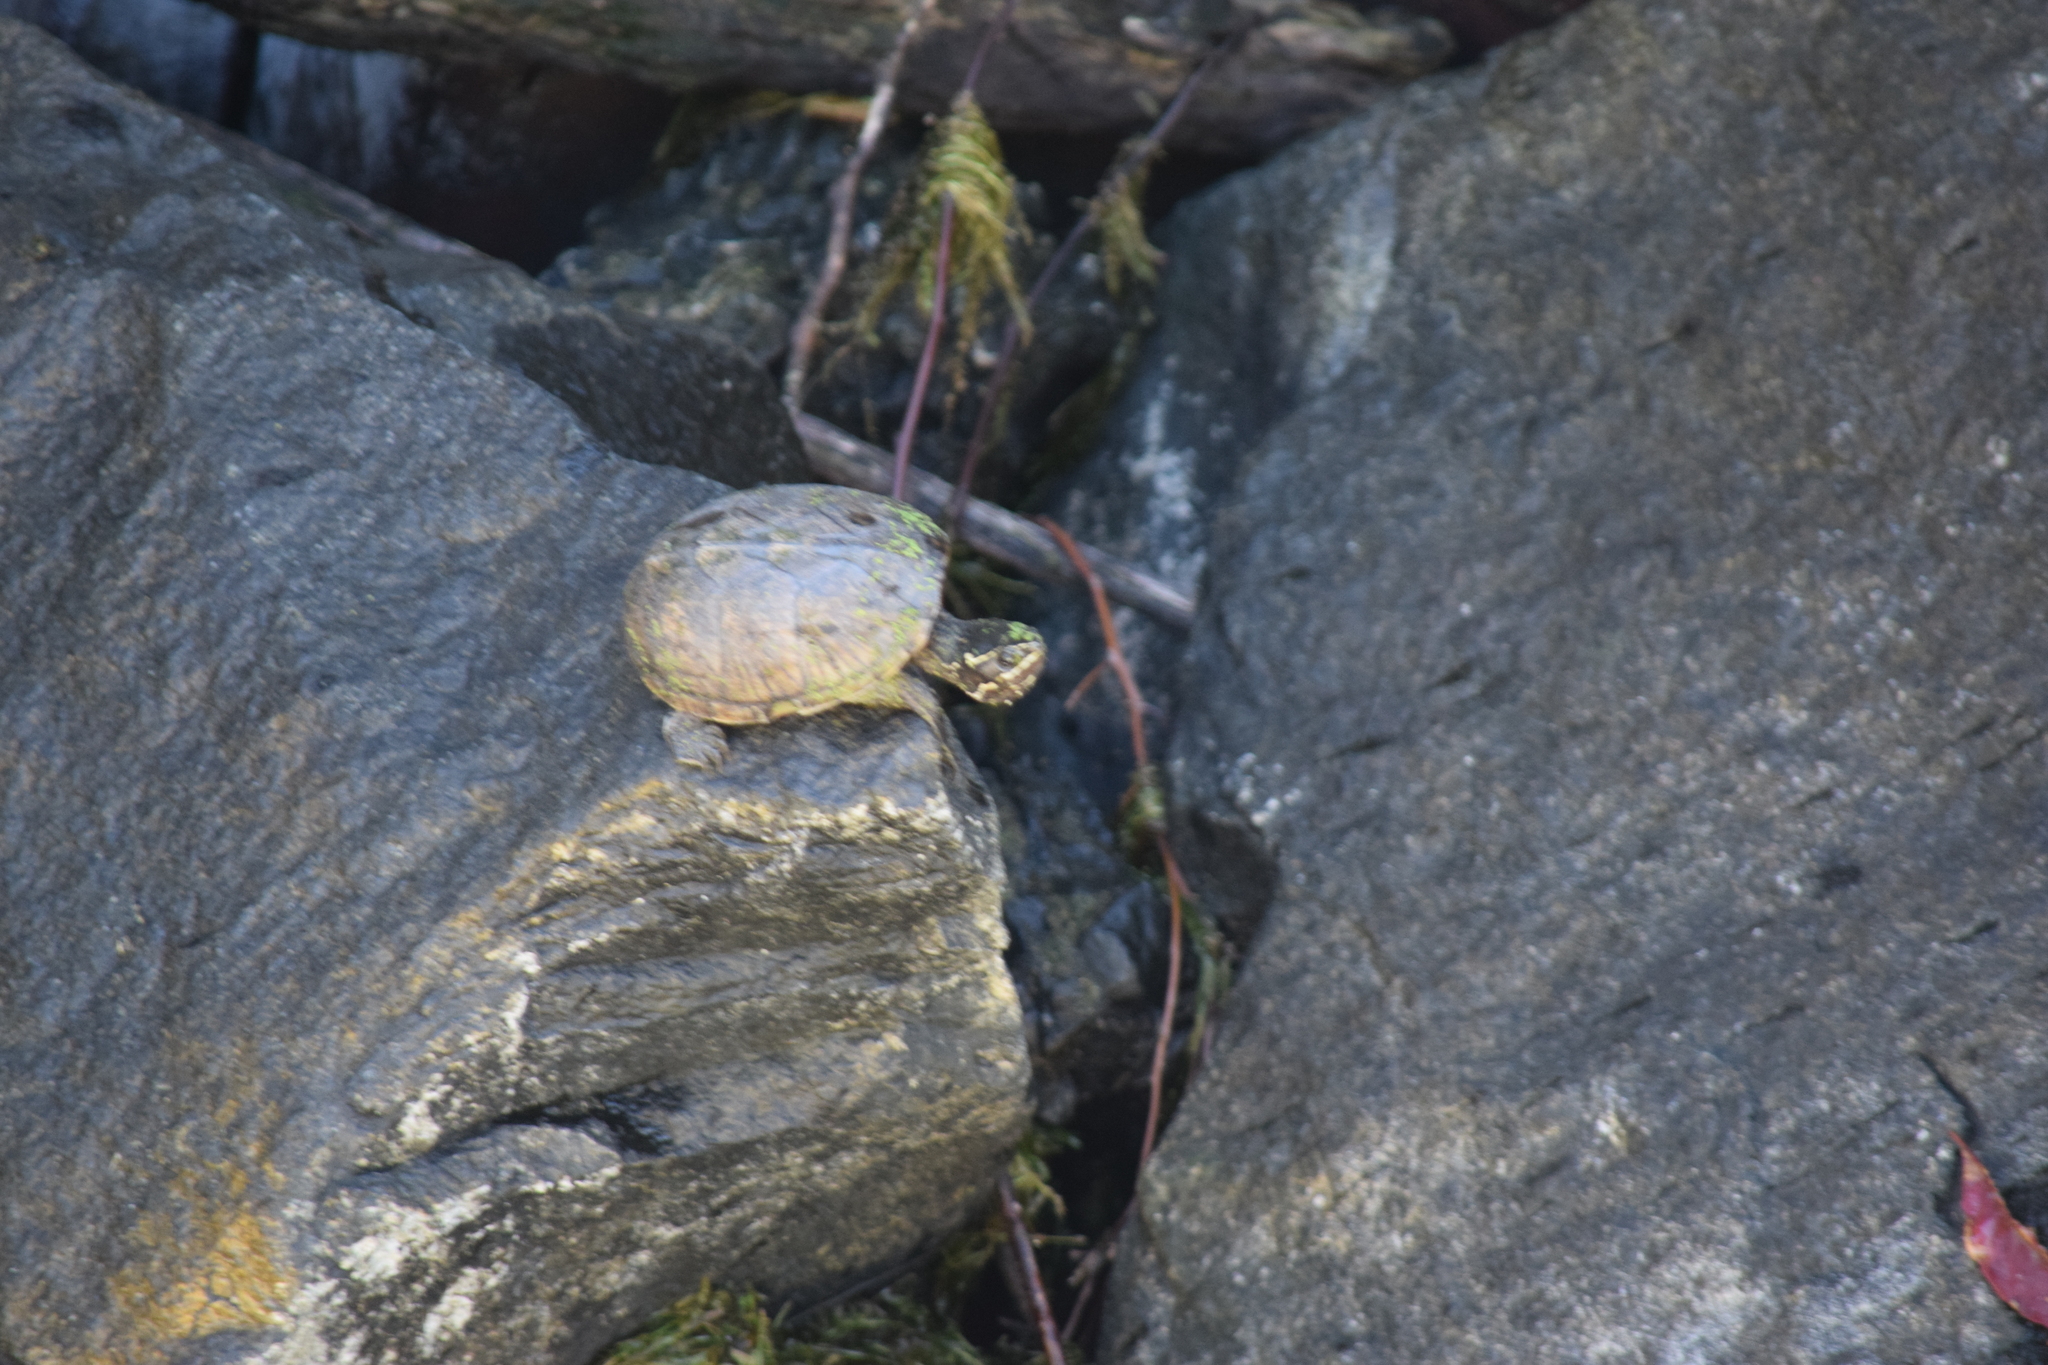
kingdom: Animalia
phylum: Chordata
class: Testudines
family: Kinosternidae
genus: Sternotherus
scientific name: Sternotherus odoratus
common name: Common musk turtle
